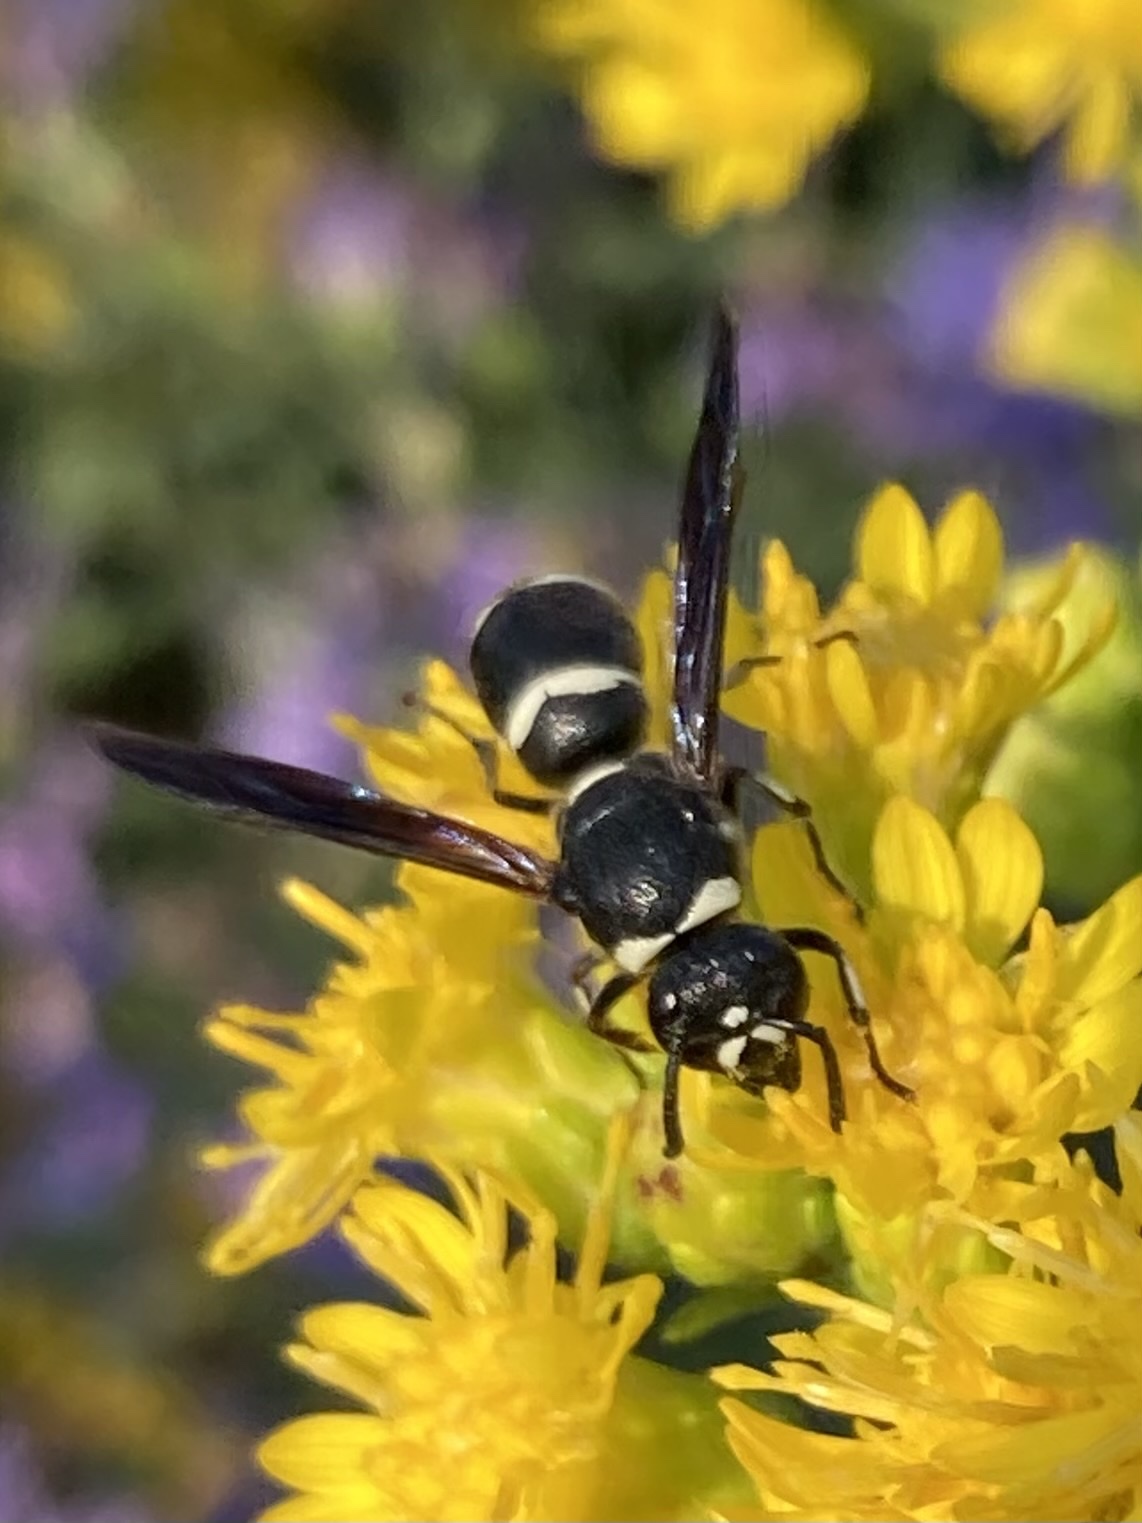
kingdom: Animalia
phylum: Arthropoda
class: Insecta
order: Hymenoptera
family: Eumenidae
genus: Euodynerus
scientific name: Euodynerus schwarzi
